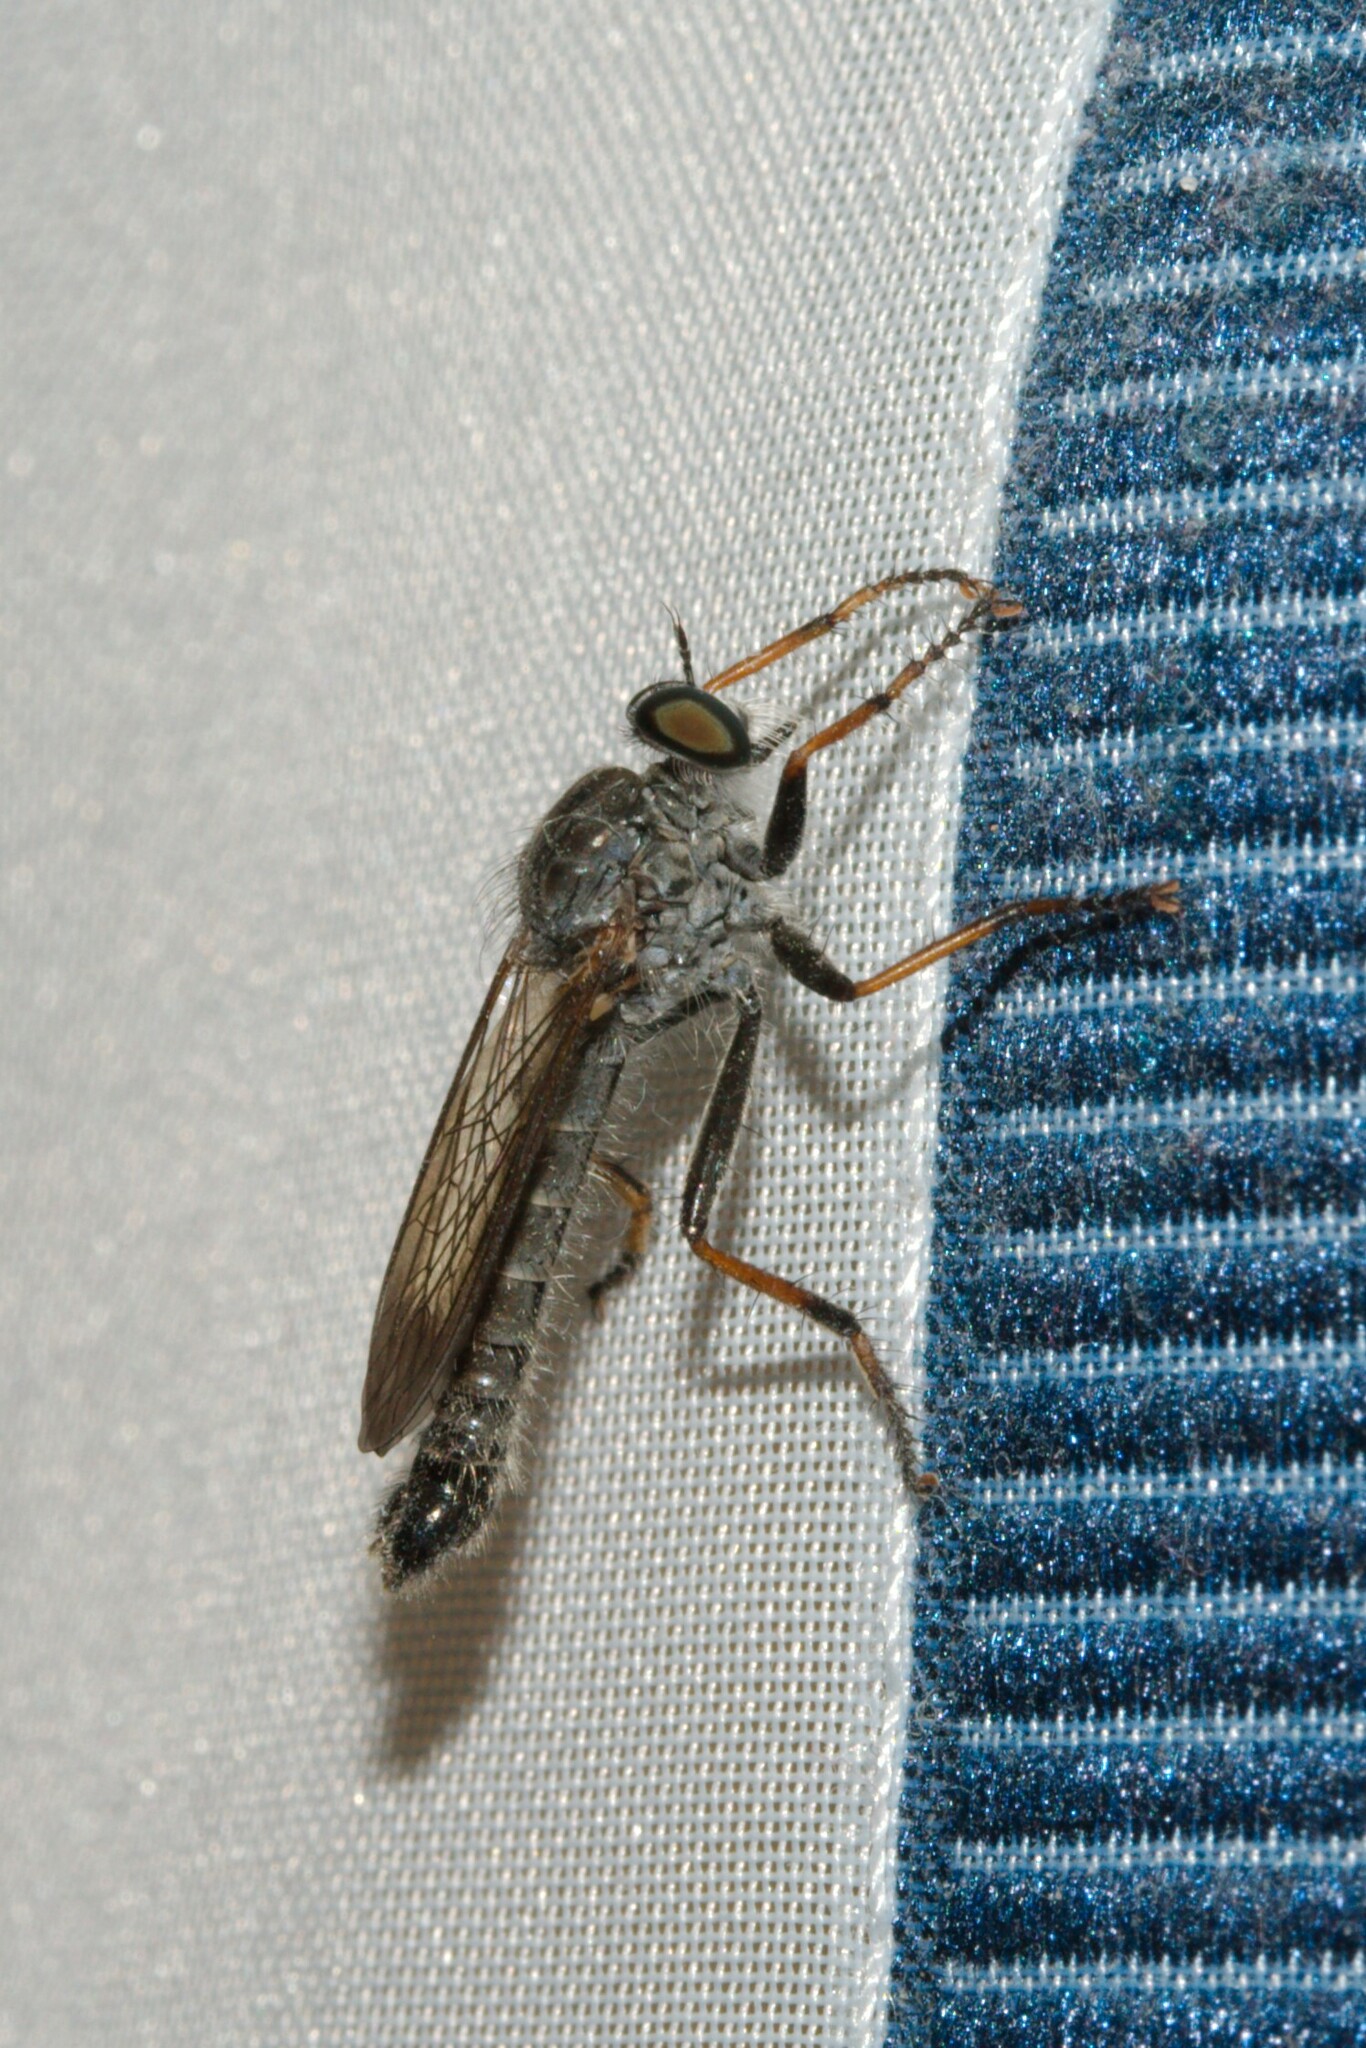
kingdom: Animalia
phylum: Arthropoda
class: Insecta
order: Diptera
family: Asilidae
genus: Paritamus
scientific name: Paritamus geniculatus
